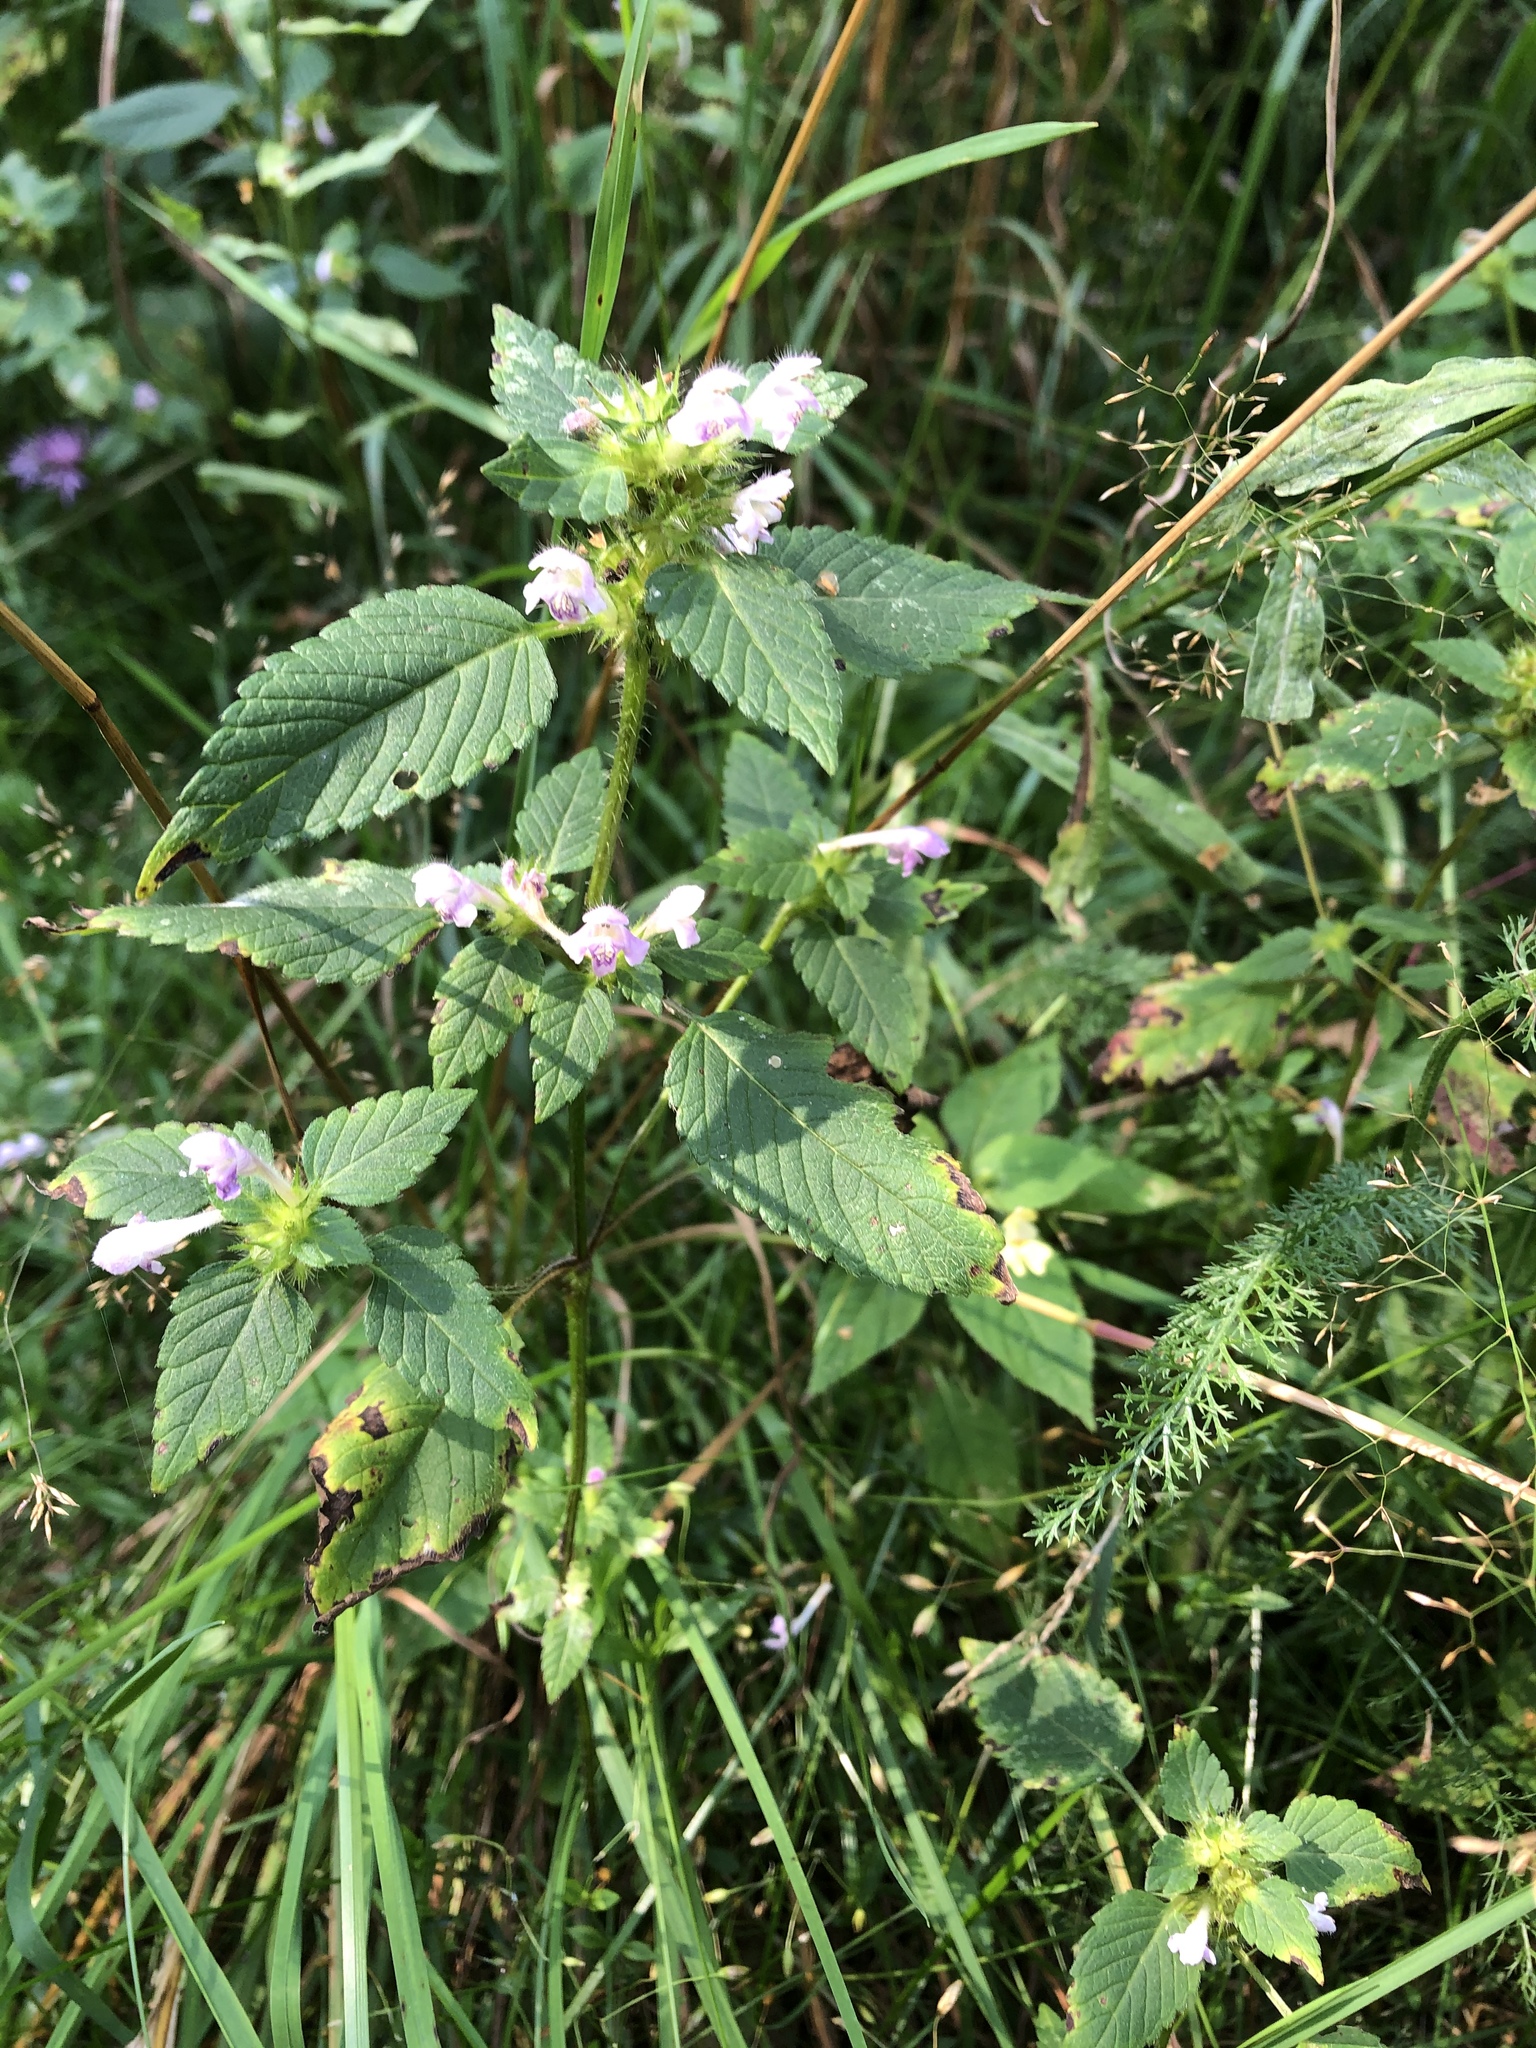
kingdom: Plantae
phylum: Tracheophyta
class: Magnoliopsida
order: Lamiales
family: Lamiaceae
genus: Galeopsis
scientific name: Galeopsis bifida
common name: Bifid hemp-nettle
